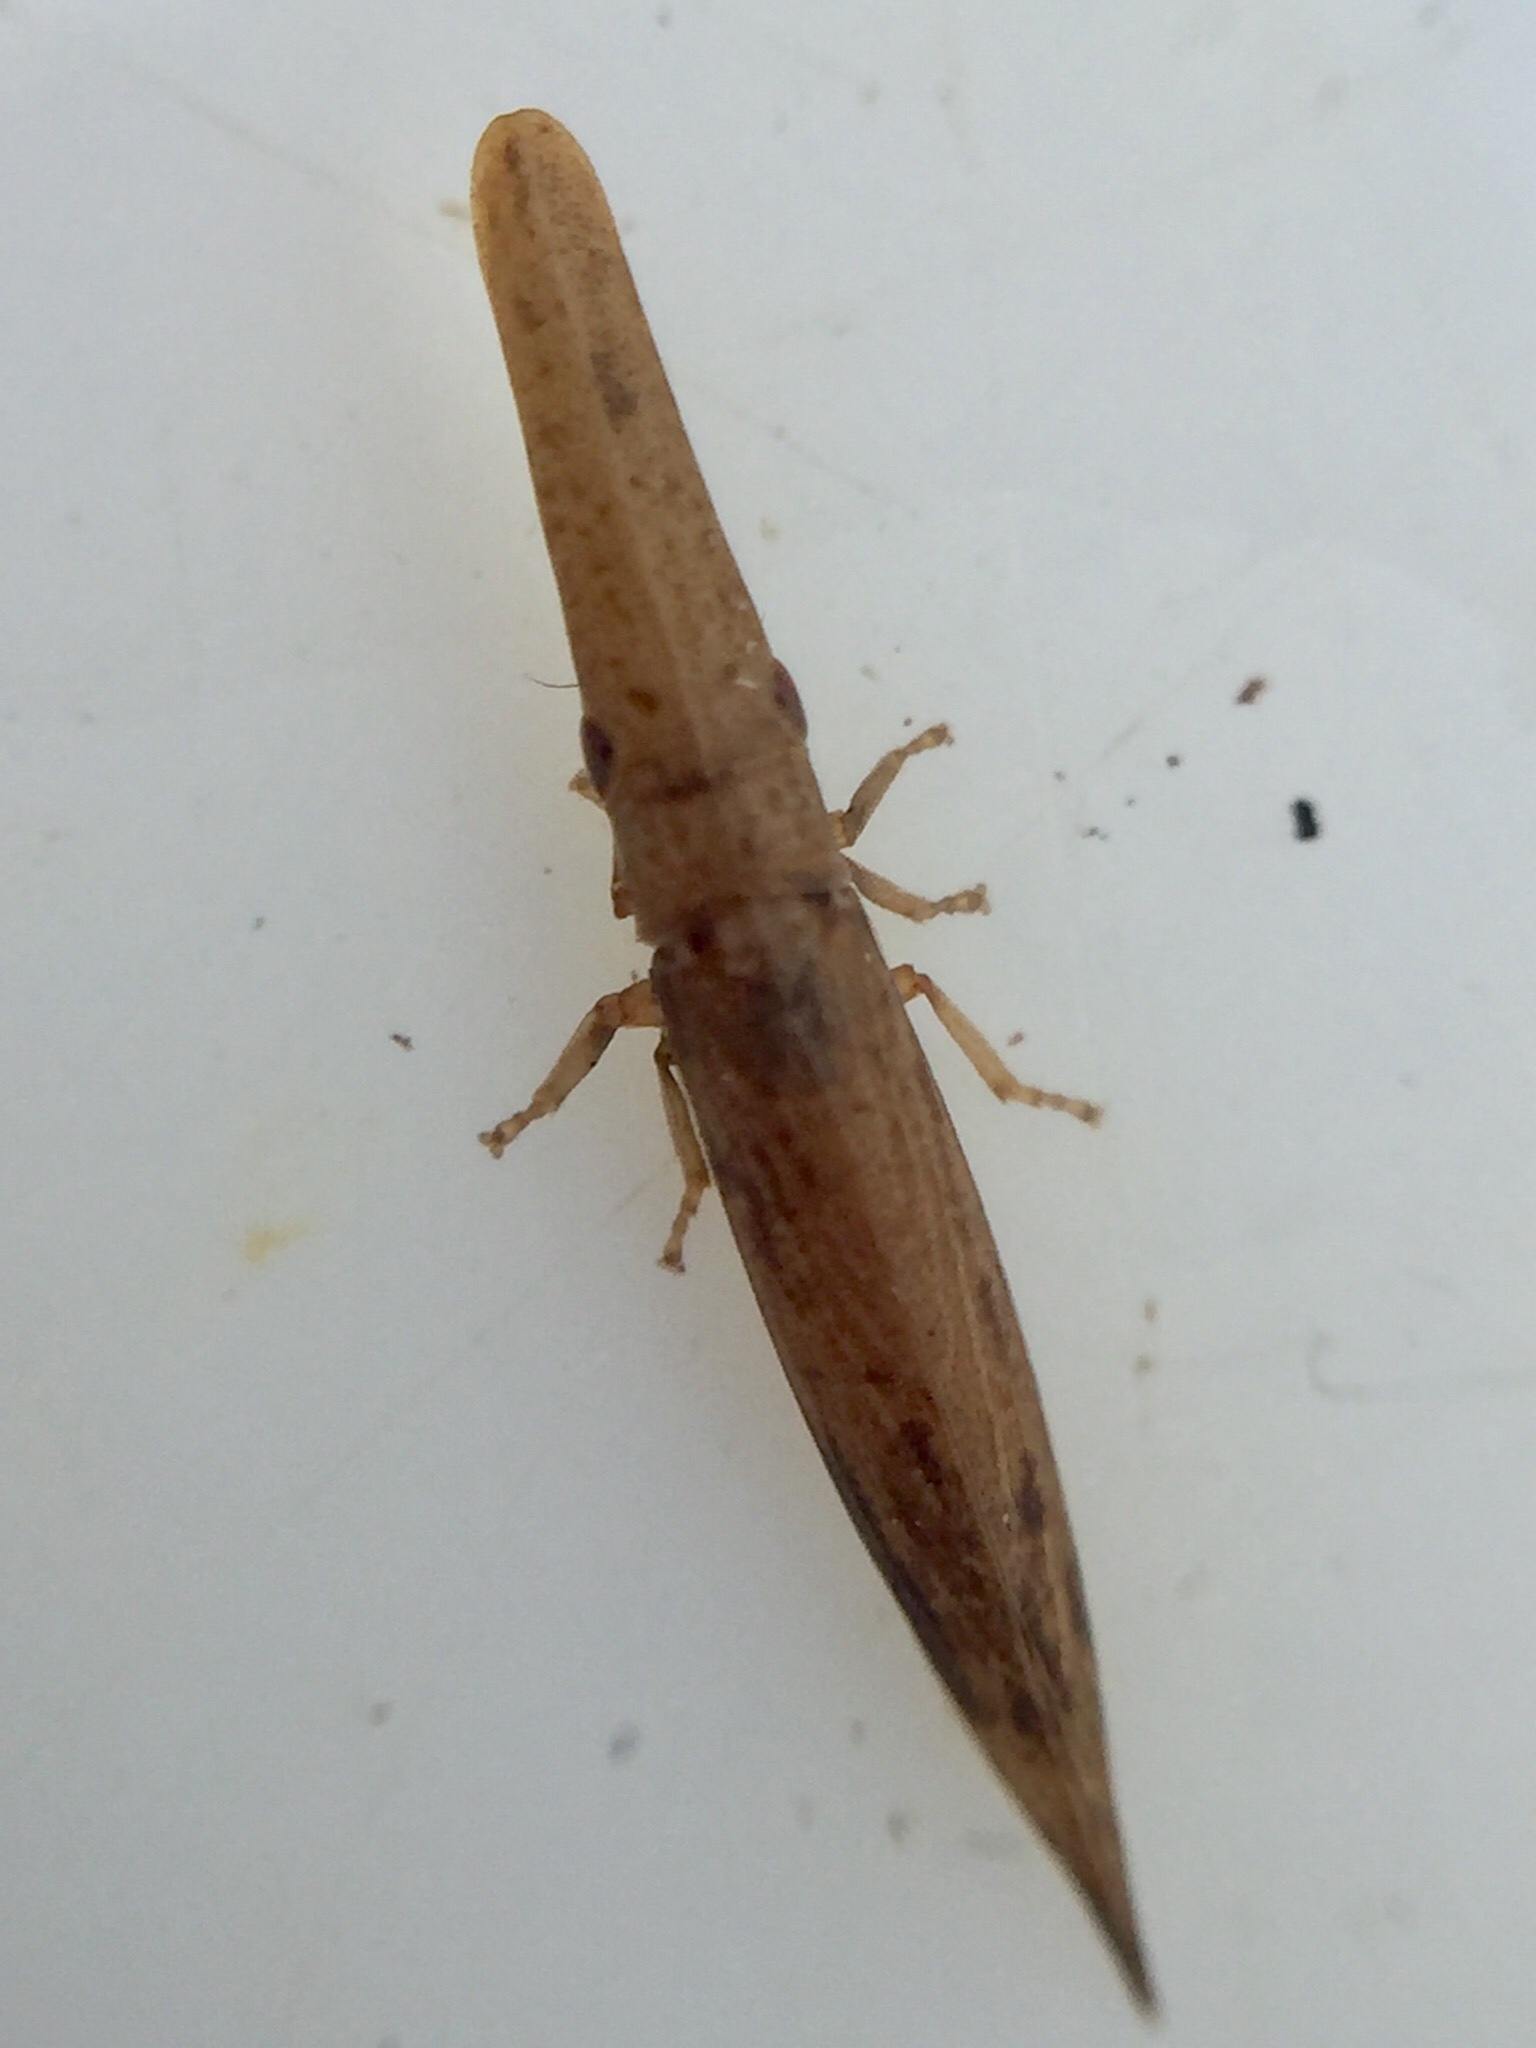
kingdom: Animalia
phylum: Arthropoda
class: Insecta
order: Hemiptera
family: Cicadellidae
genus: Paracephaleus
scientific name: Paracephaleus hudsoni
